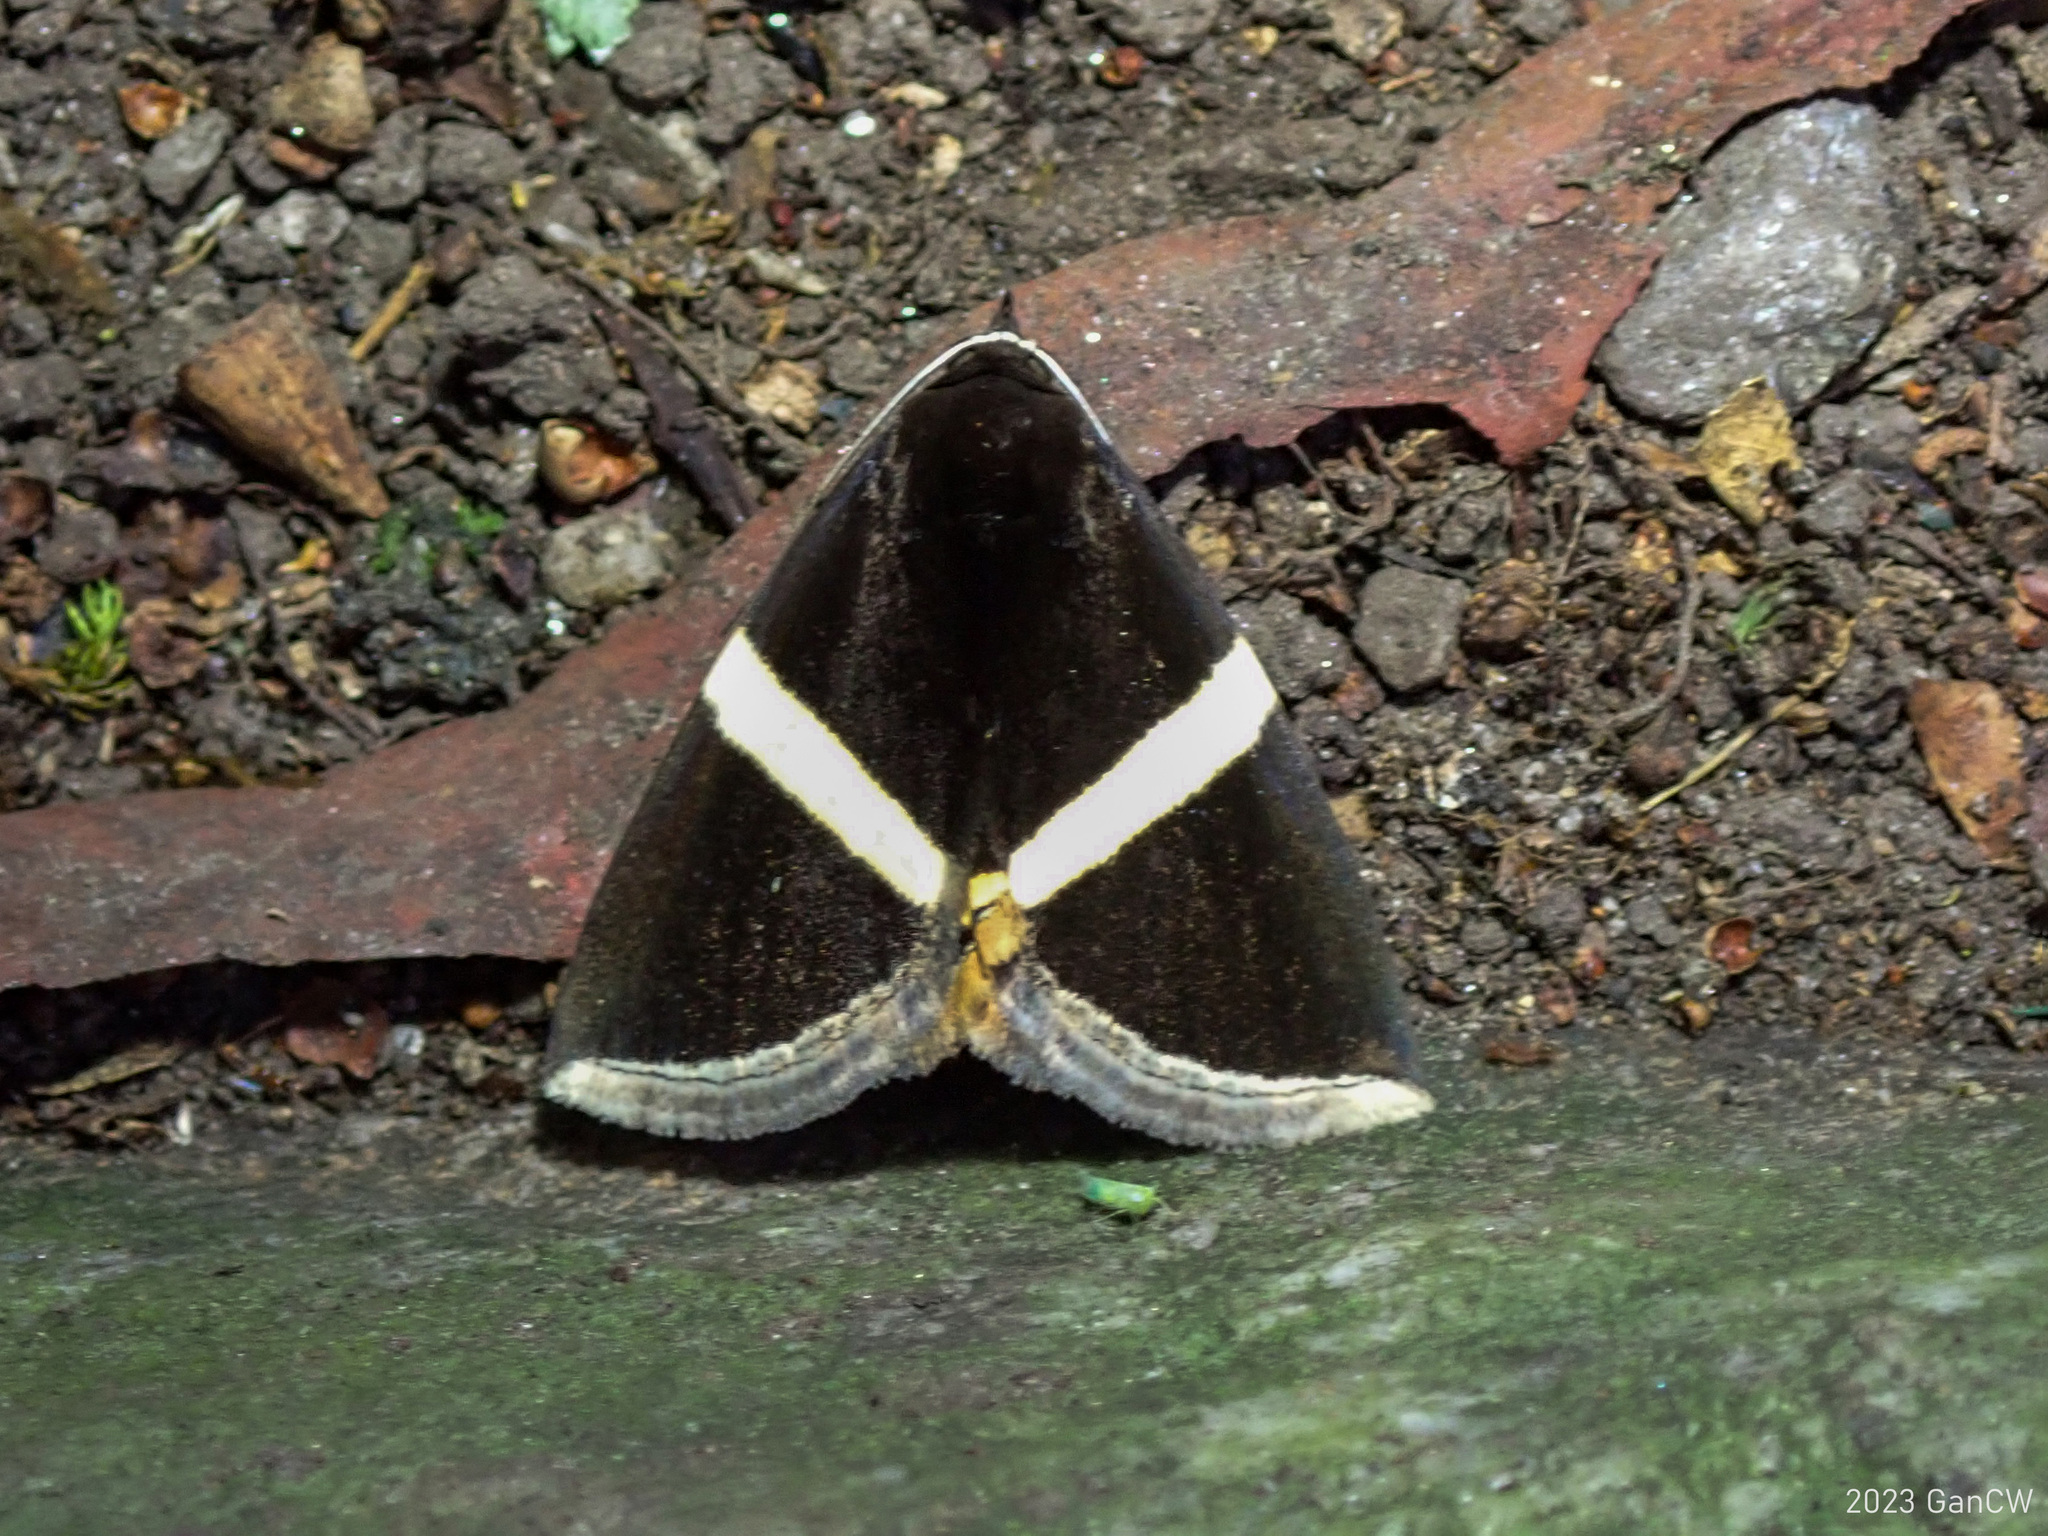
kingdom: Animalia
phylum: Arthropoda
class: Insecta
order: Lepidoptera
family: Erebidae
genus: Fodina
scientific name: Fodina oriolus
